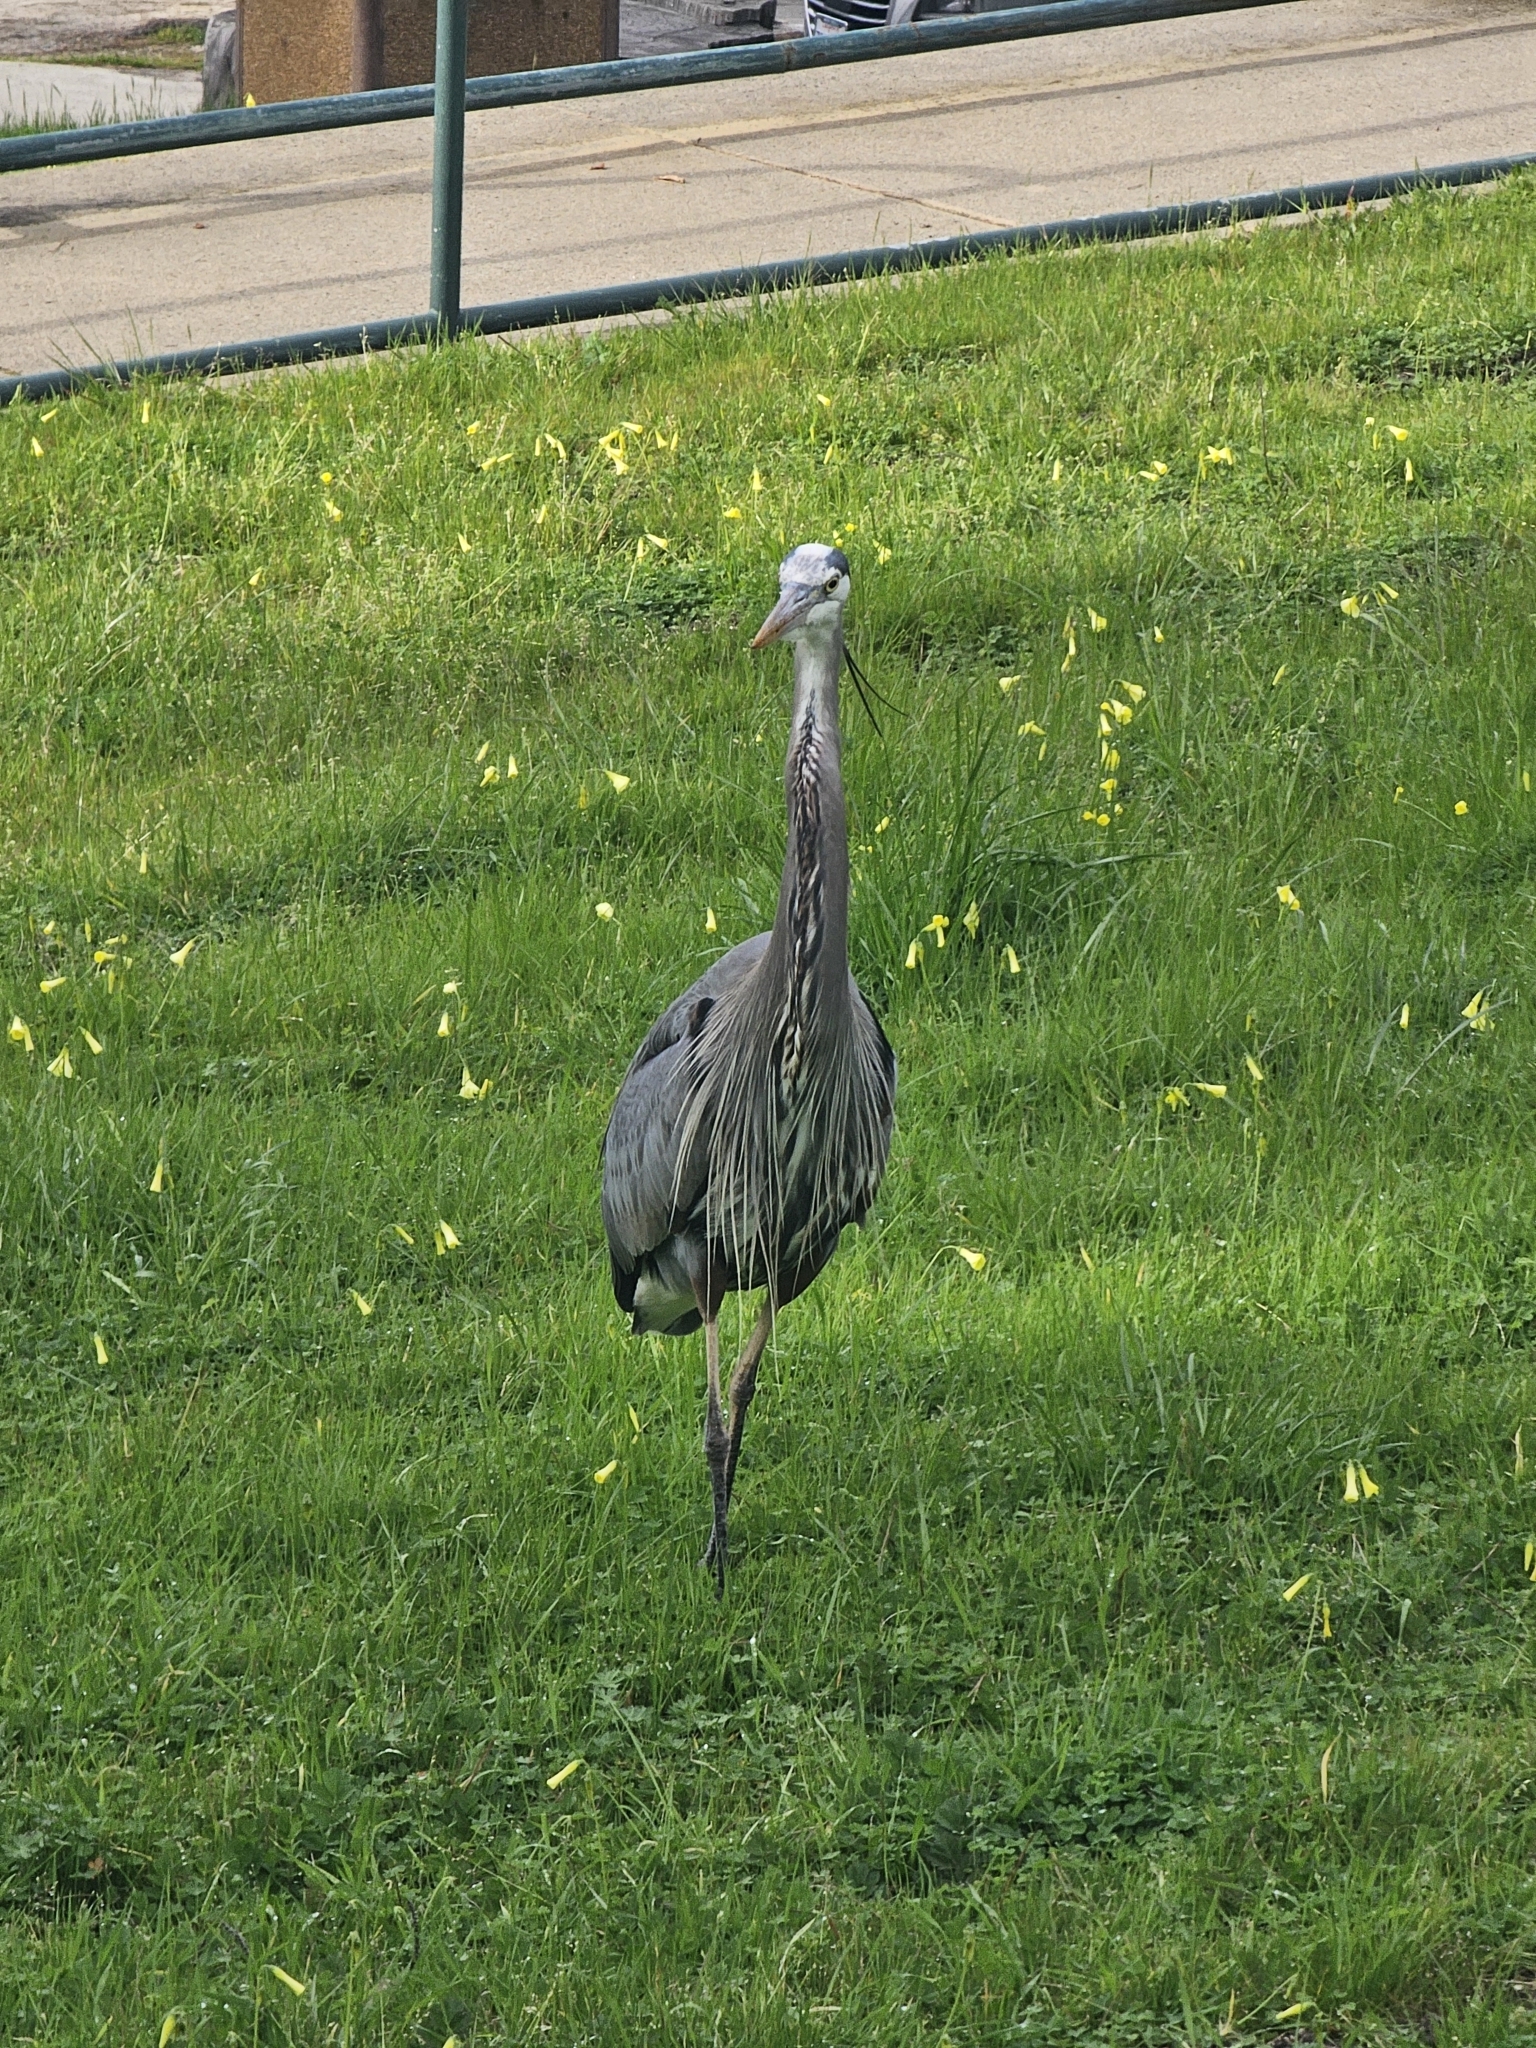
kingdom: Animalia
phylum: Chordata
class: Aves
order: Pelecaniformes
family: Ardeidae
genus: Ardea
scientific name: Ardea herodias
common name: Great blue heron
